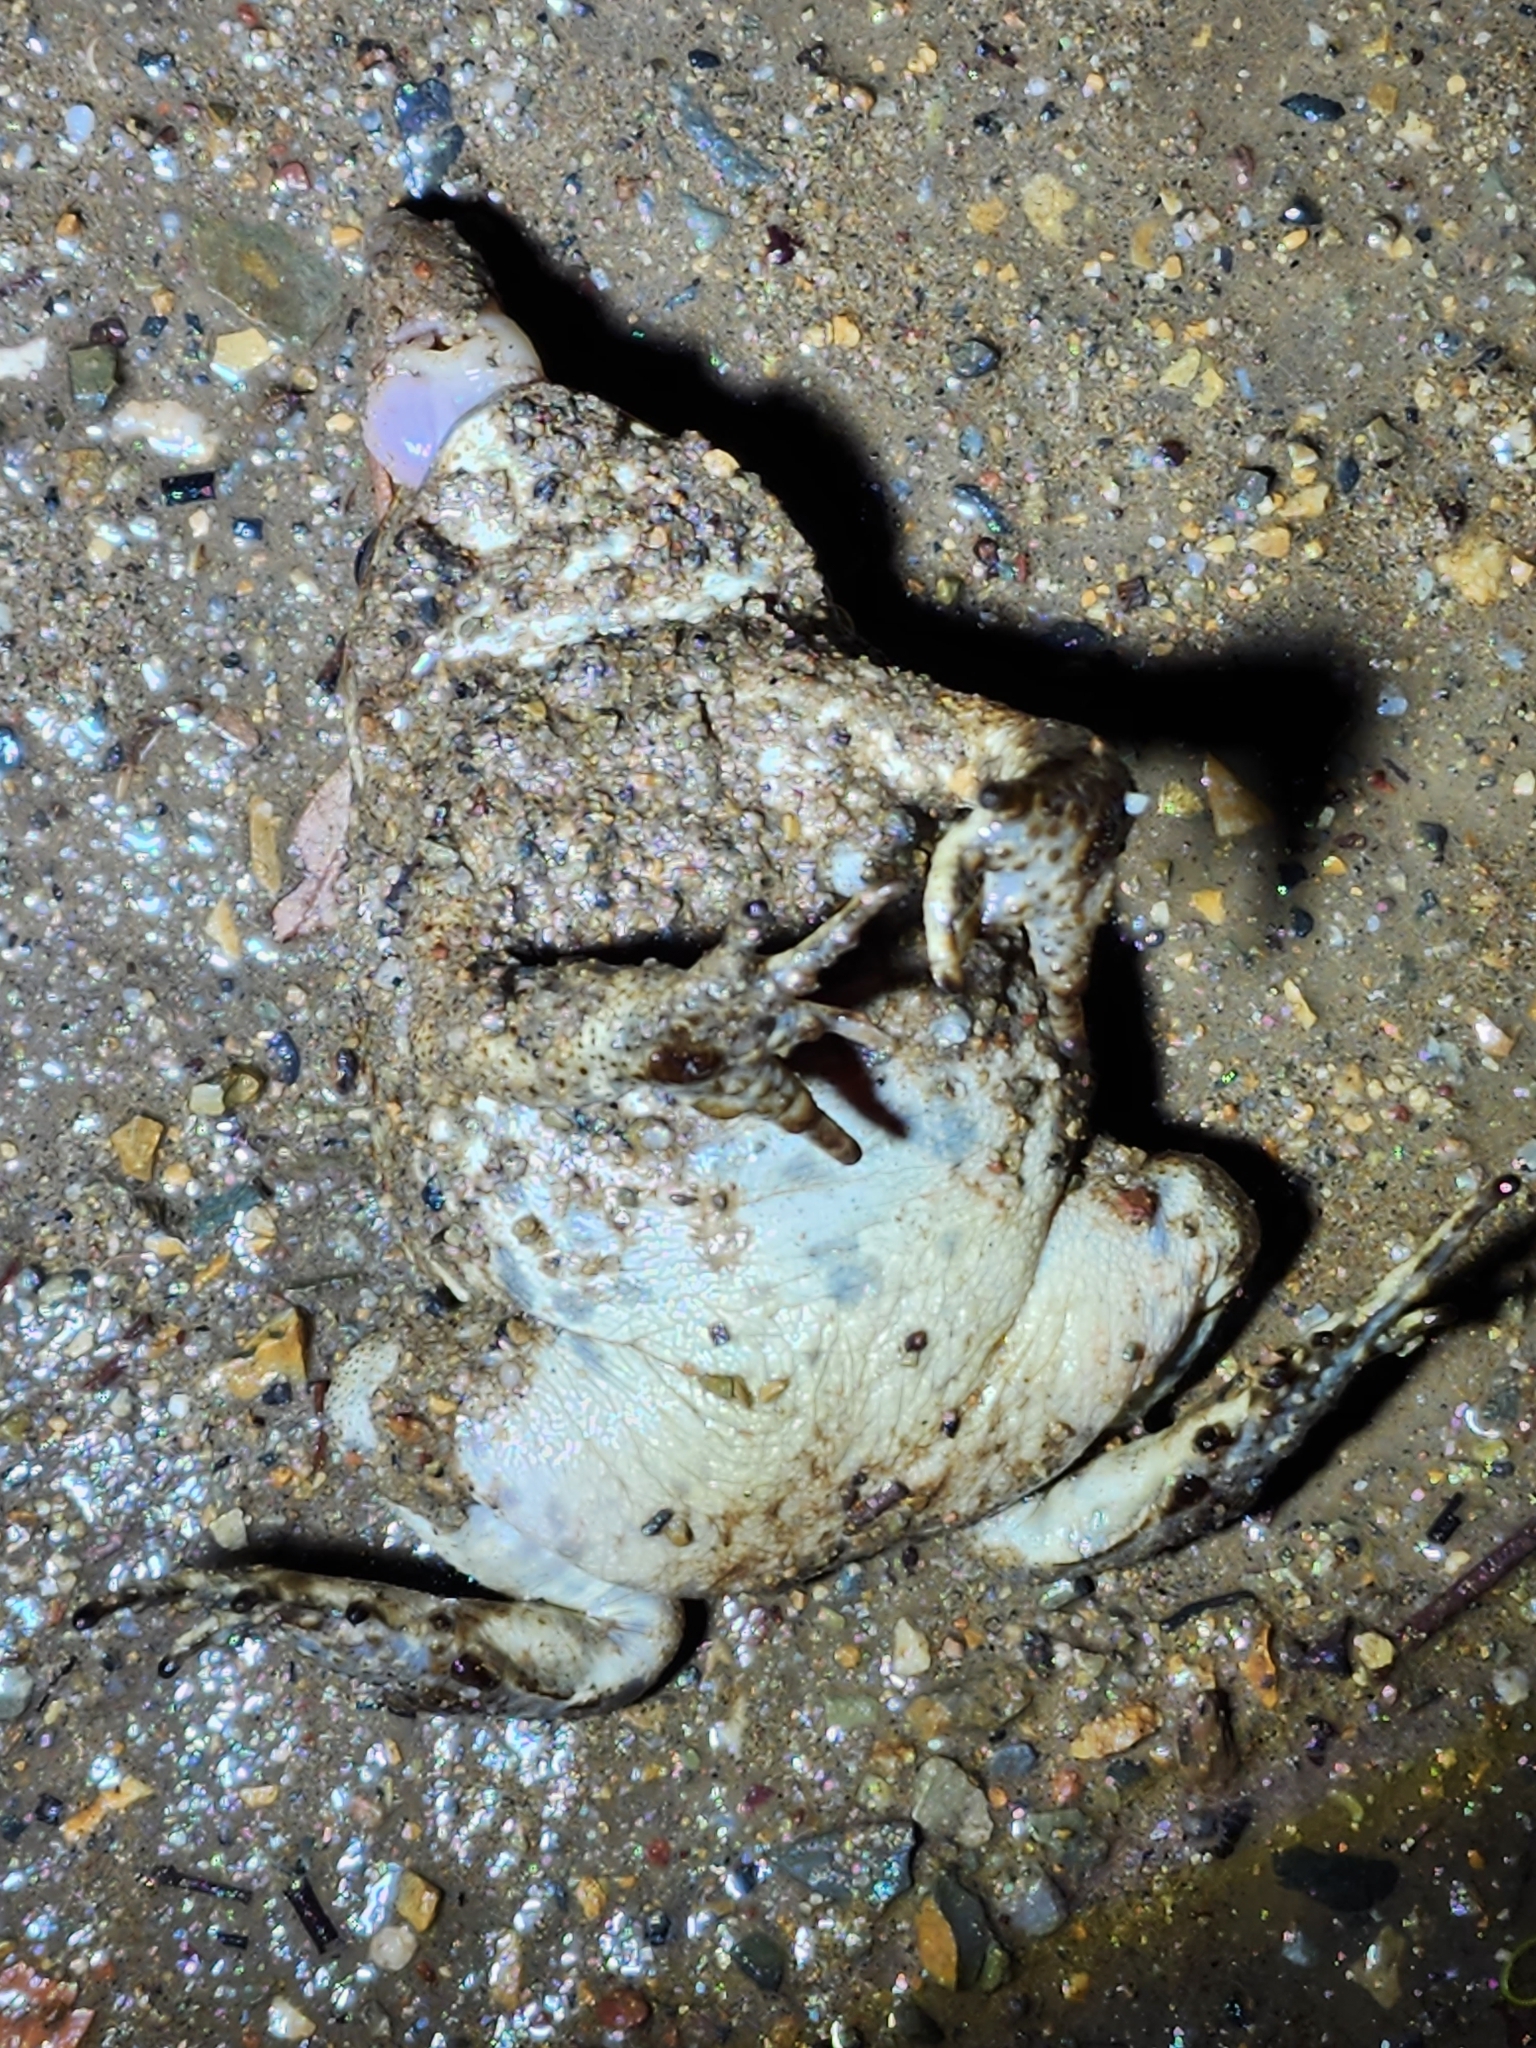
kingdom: Animalia
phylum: Chordata
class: Amphibia
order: Anura
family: Bufonidae
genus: Rhinella
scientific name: Rhinella marina
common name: Cane toad
